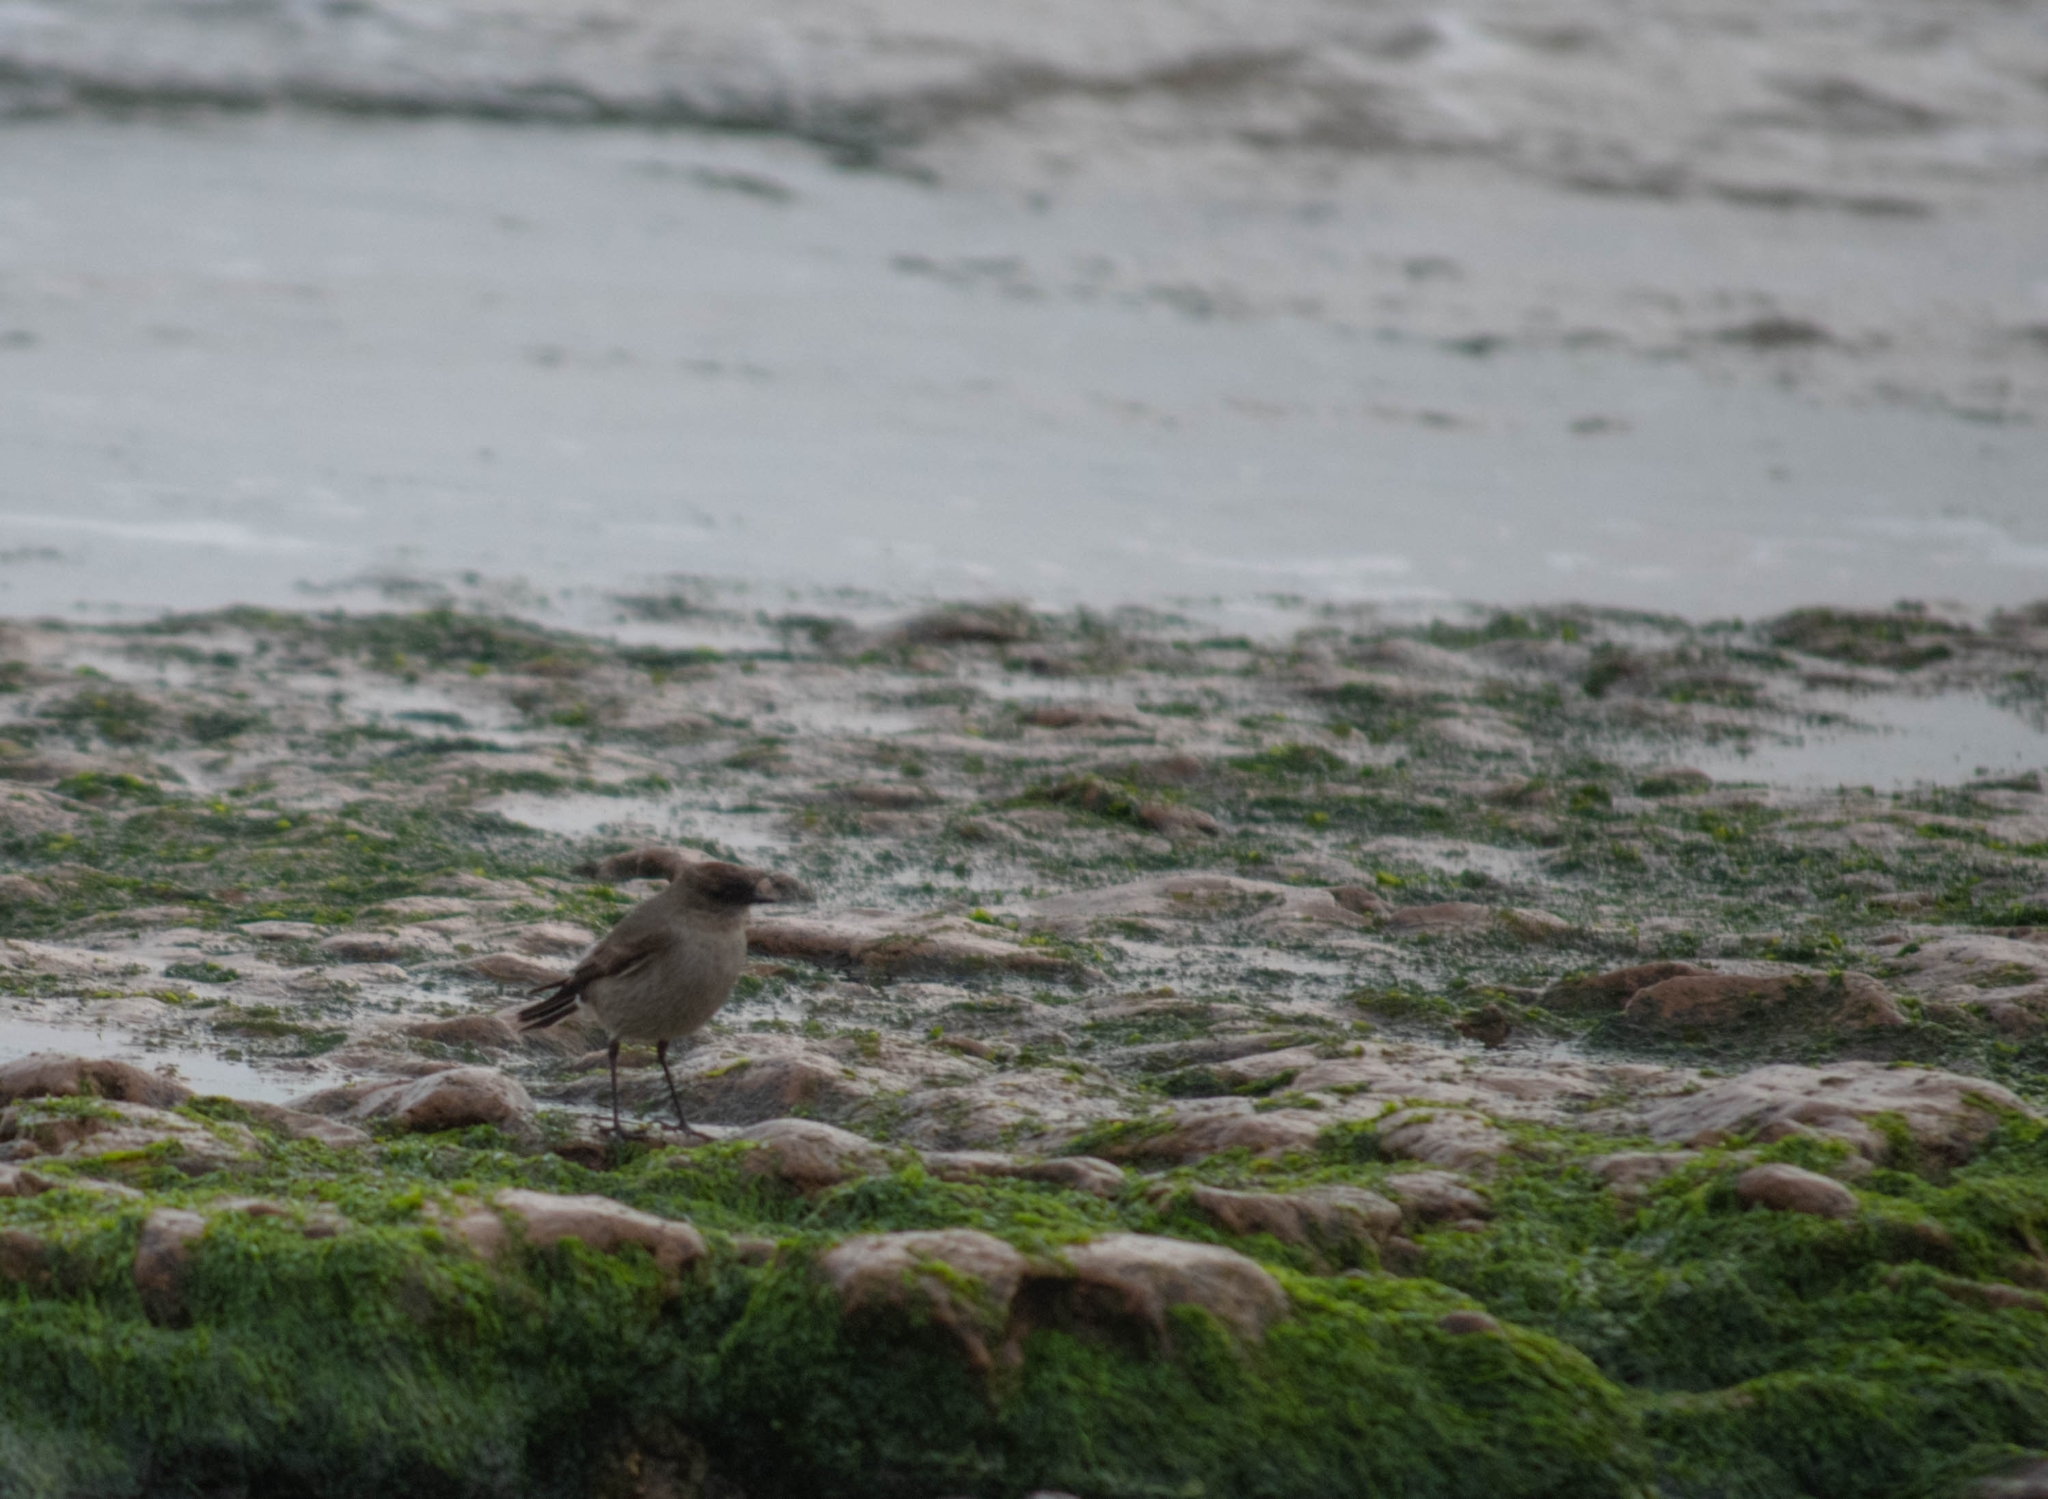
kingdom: Animalia
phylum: Chordata
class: Aves
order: Passeriformes
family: Tyrannidae
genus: Muscisaxicola
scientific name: Muscisaxicola maclovianus
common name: Dark-faced ground tyrant
